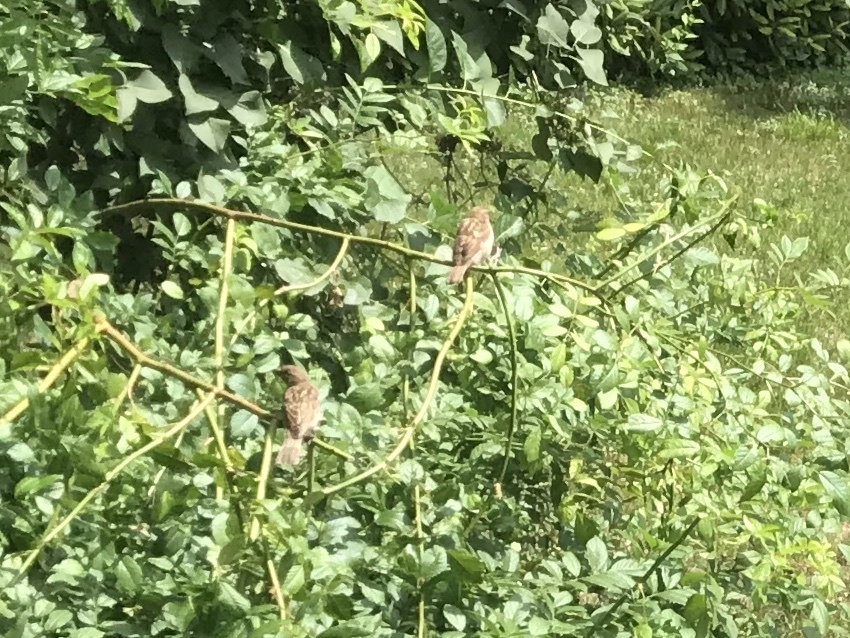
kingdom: Animalia
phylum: Chordata
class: Aves
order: Passeriformes
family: Passeridae
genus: Passer
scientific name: Passer domesticus
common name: House sparrow
